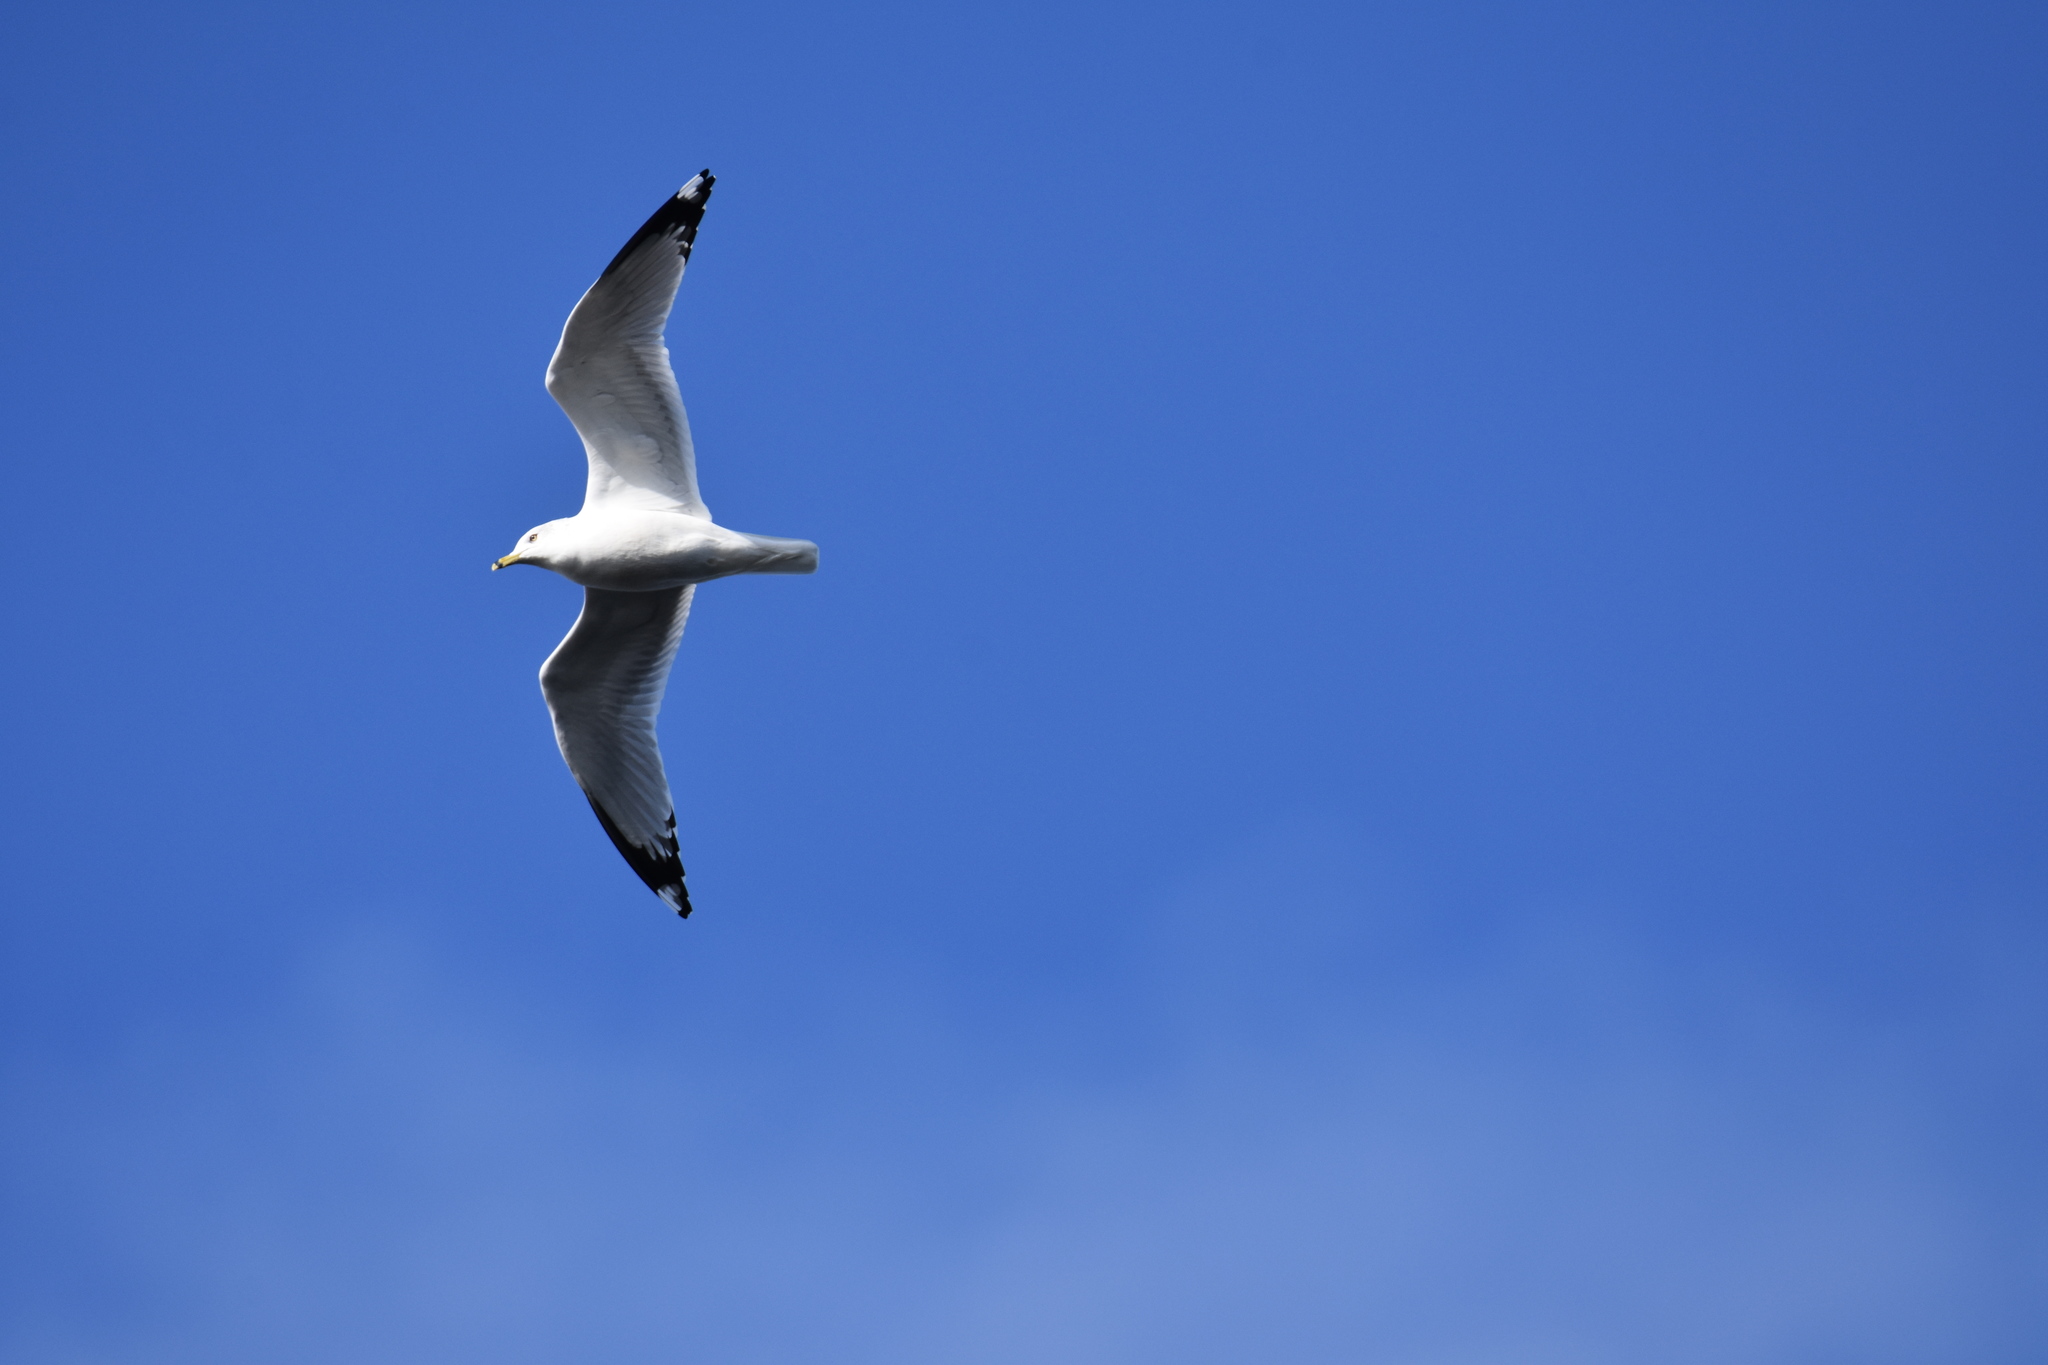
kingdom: Animalia
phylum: Chordata
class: Aves
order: Charadriiformes
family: Laridae
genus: Larus
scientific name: Larus delawarensis
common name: Ring-billed gull
